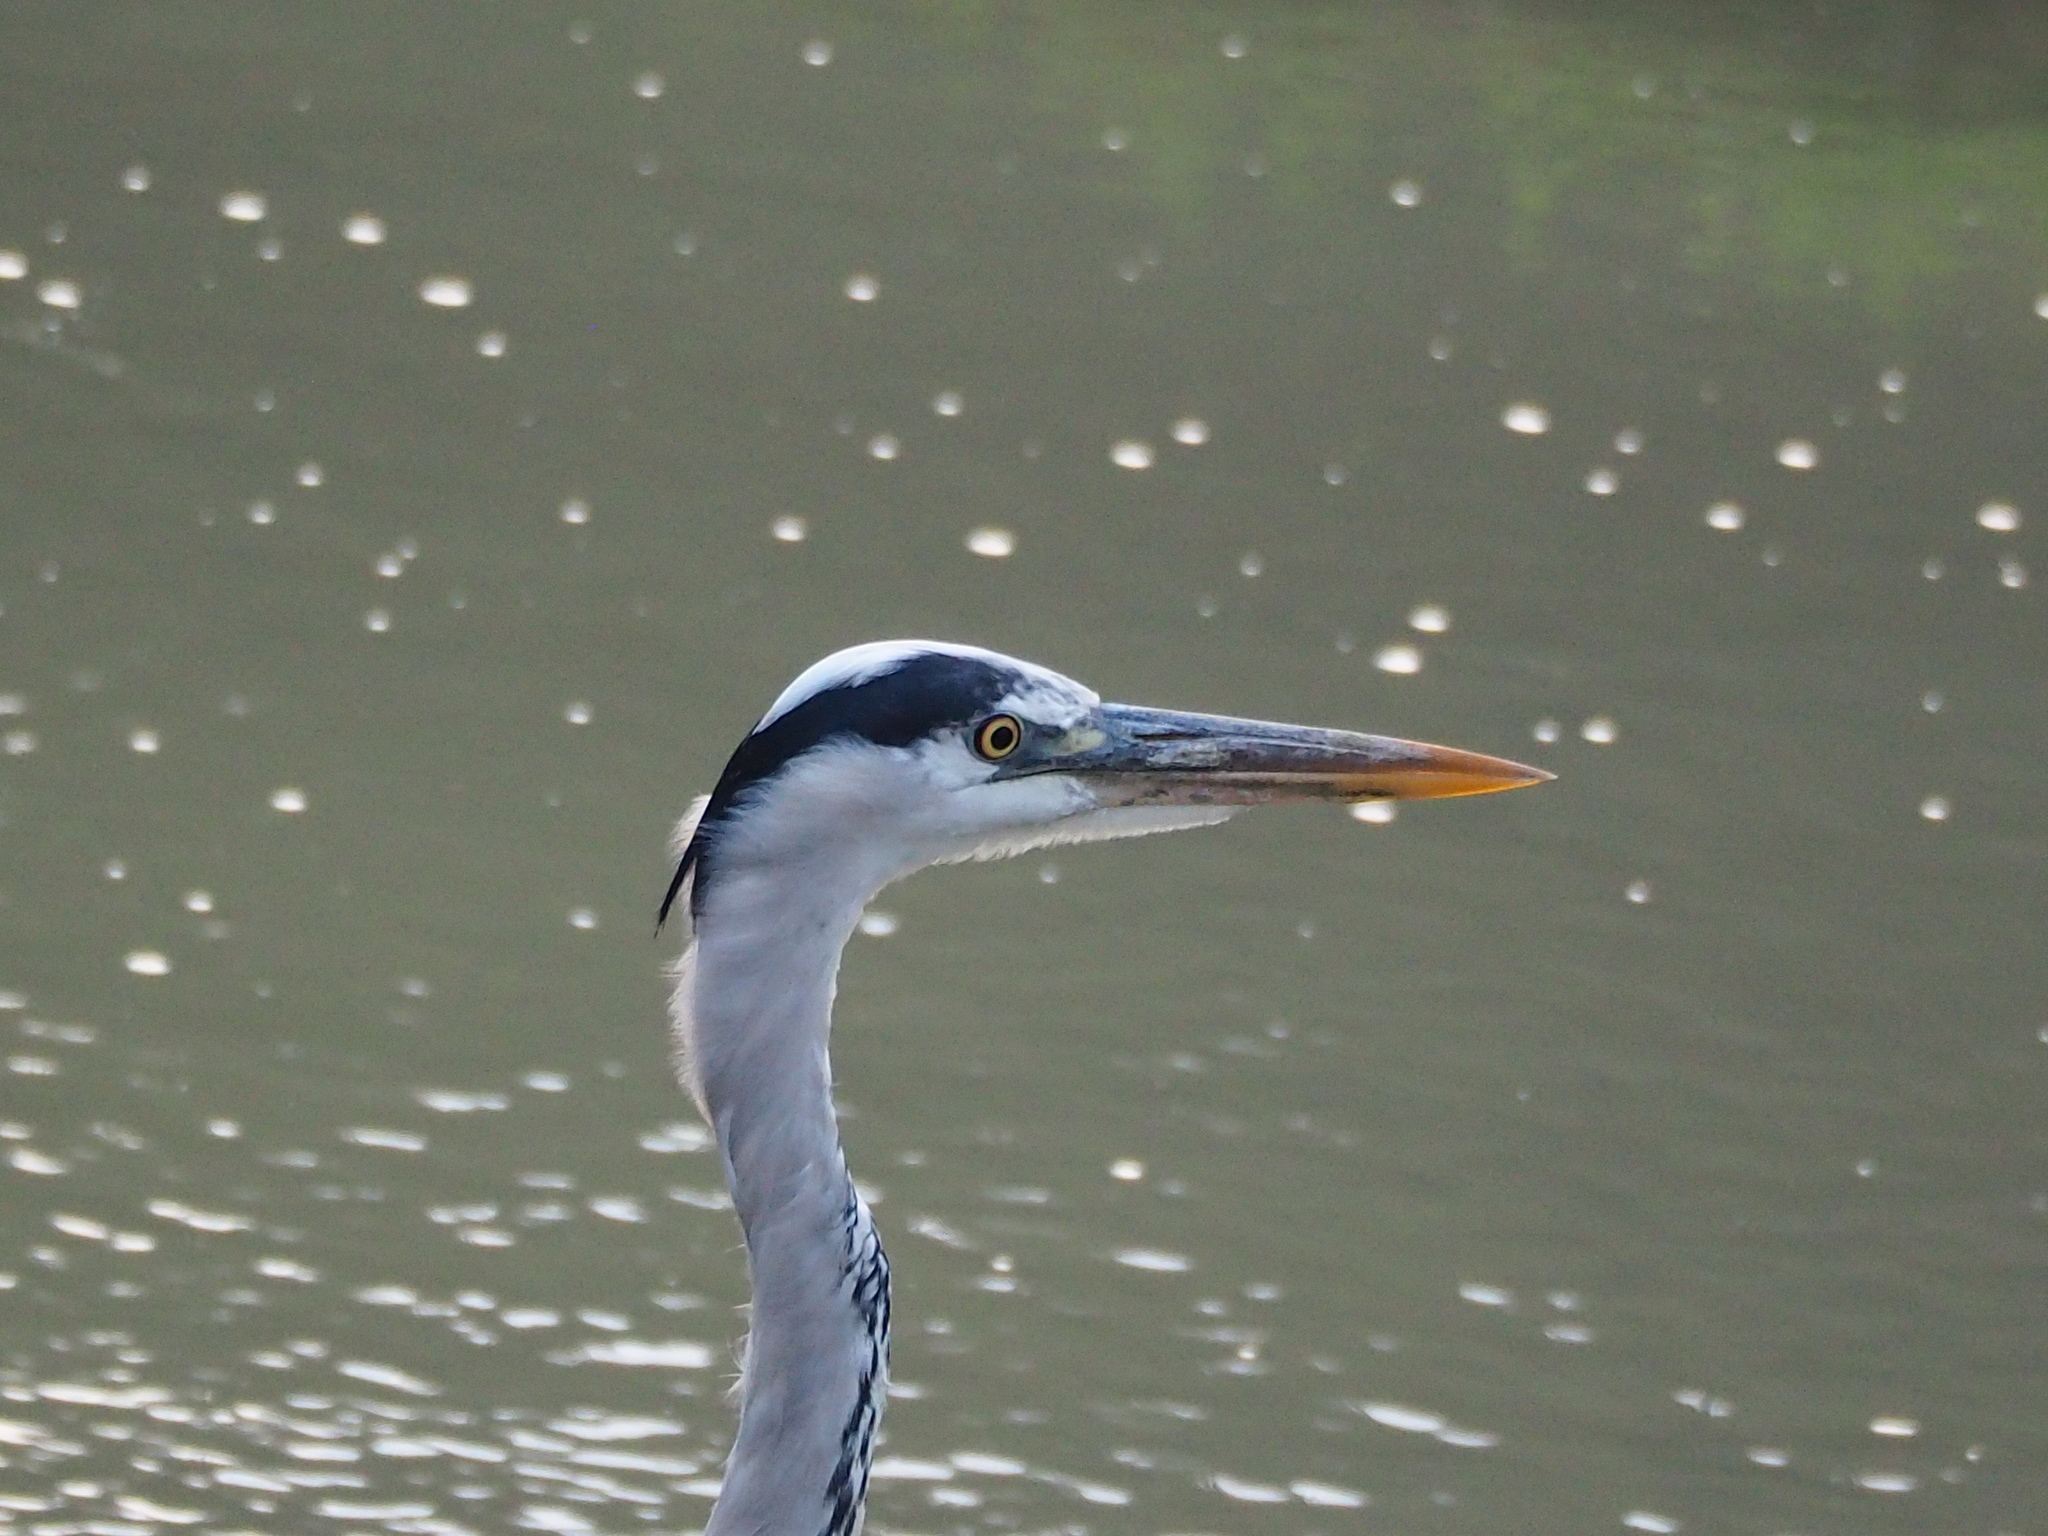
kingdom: Animalia
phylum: Chordata
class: Aves
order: Pelecaniformes
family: Ardeidae
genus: Ardea
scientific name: Ardea cinerea
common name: Grey heron
